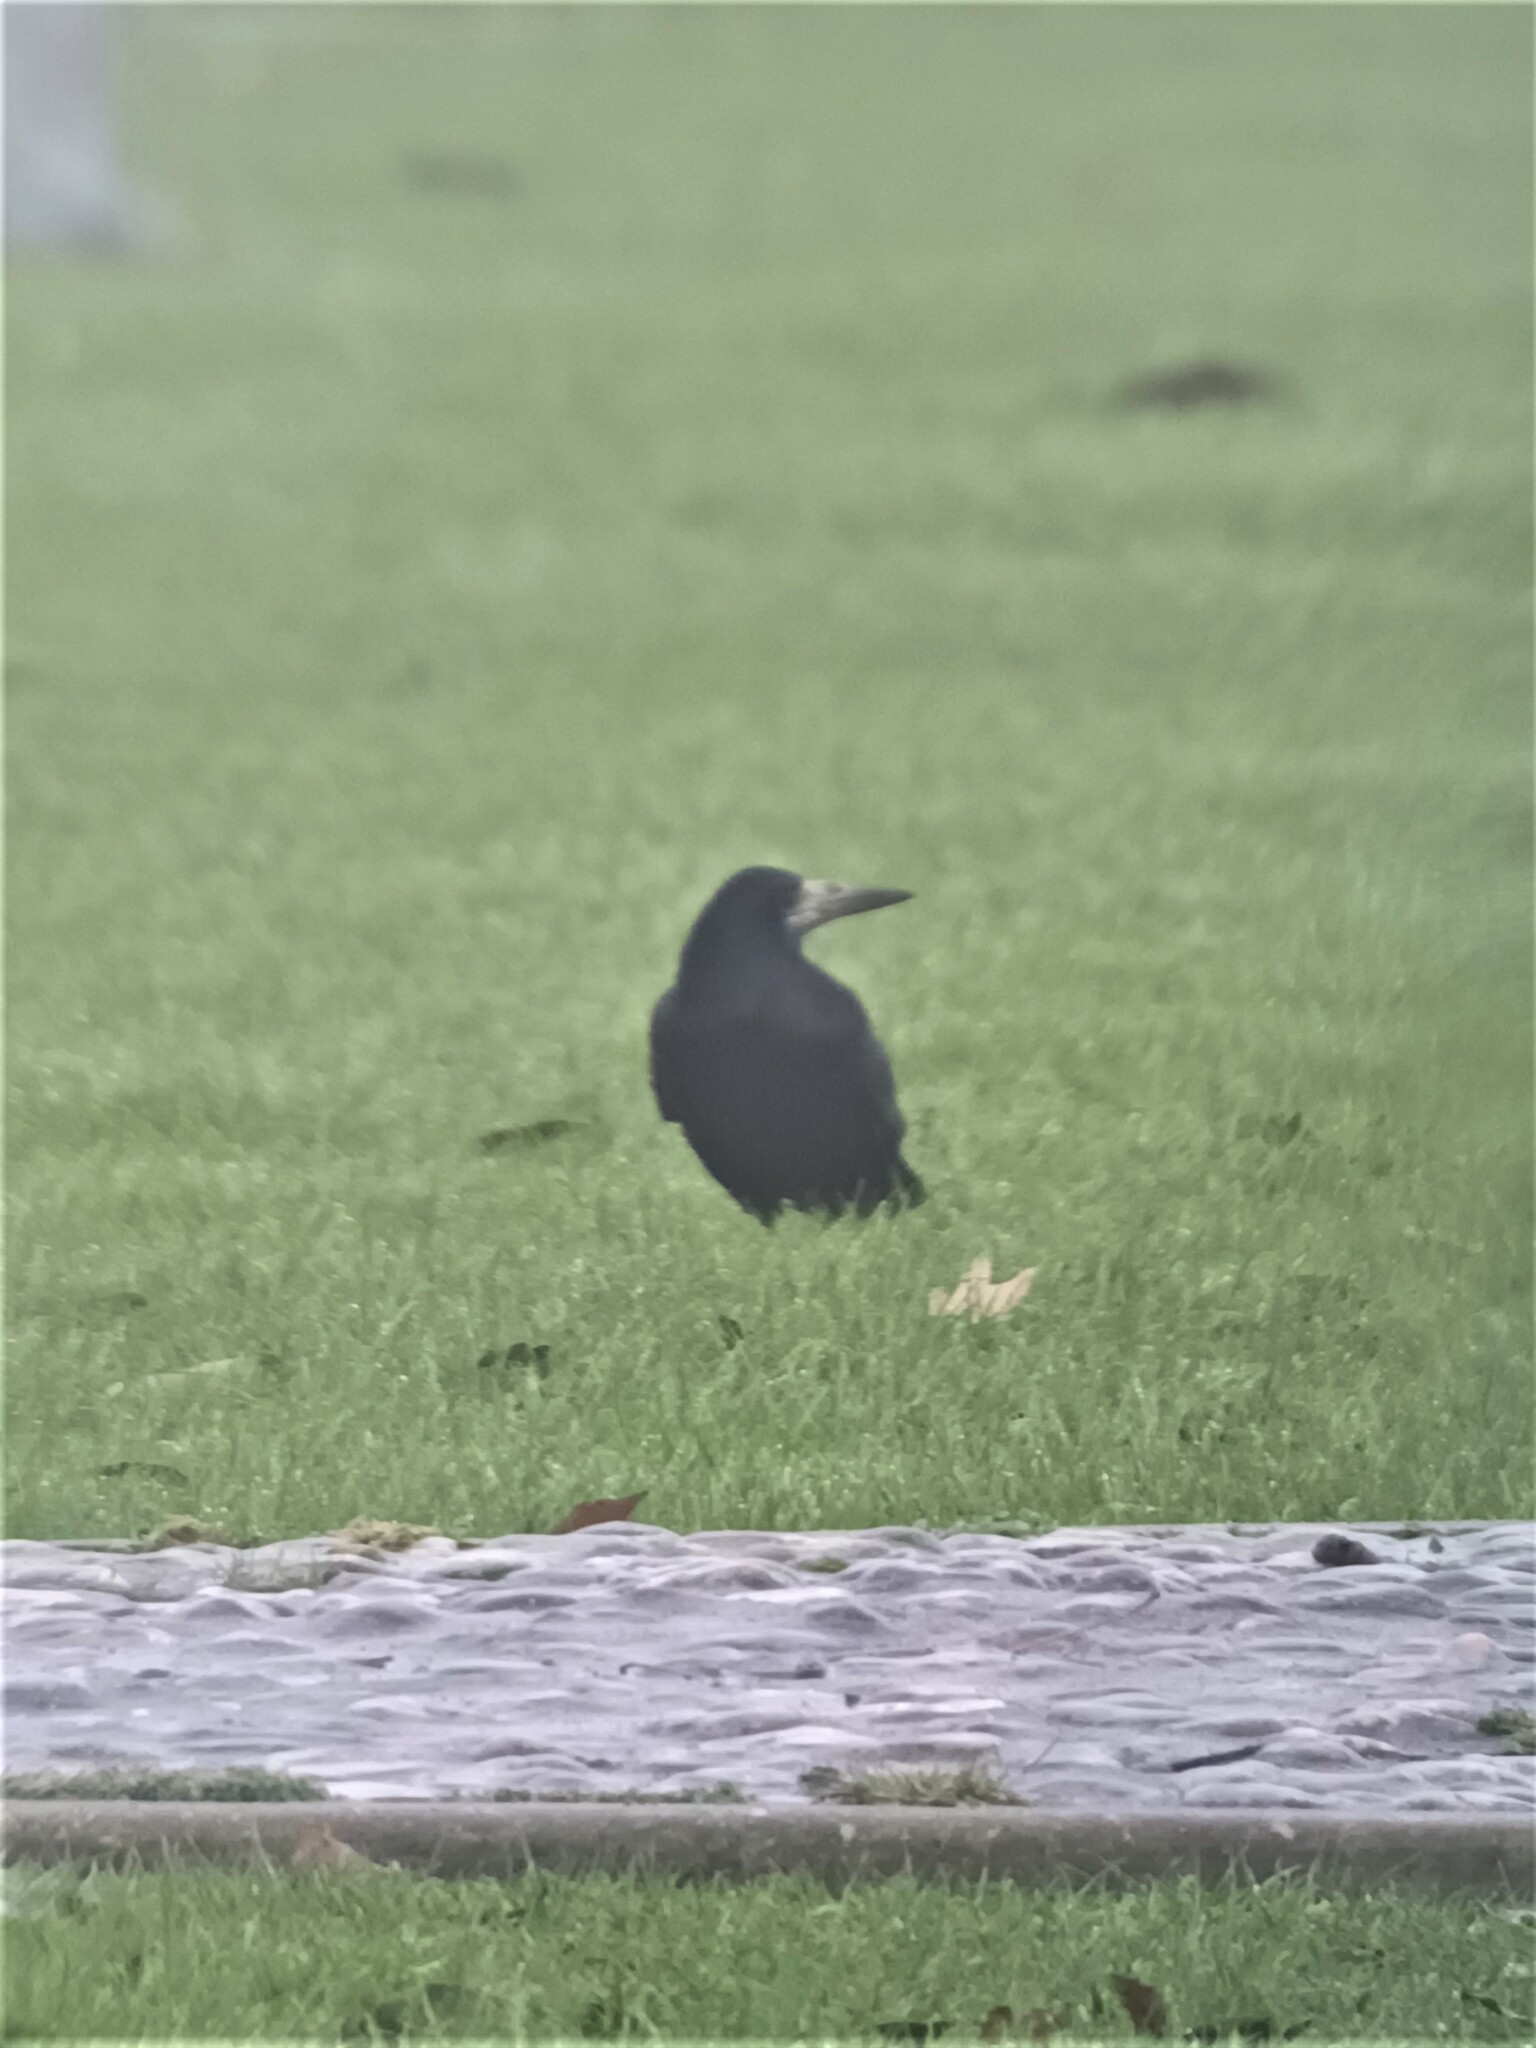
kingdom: Animalia
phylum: Chordata
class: Aves
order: Passeriformes
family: Corvidae
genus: Corvus
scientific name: Corvus frugilegus
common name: Rook
